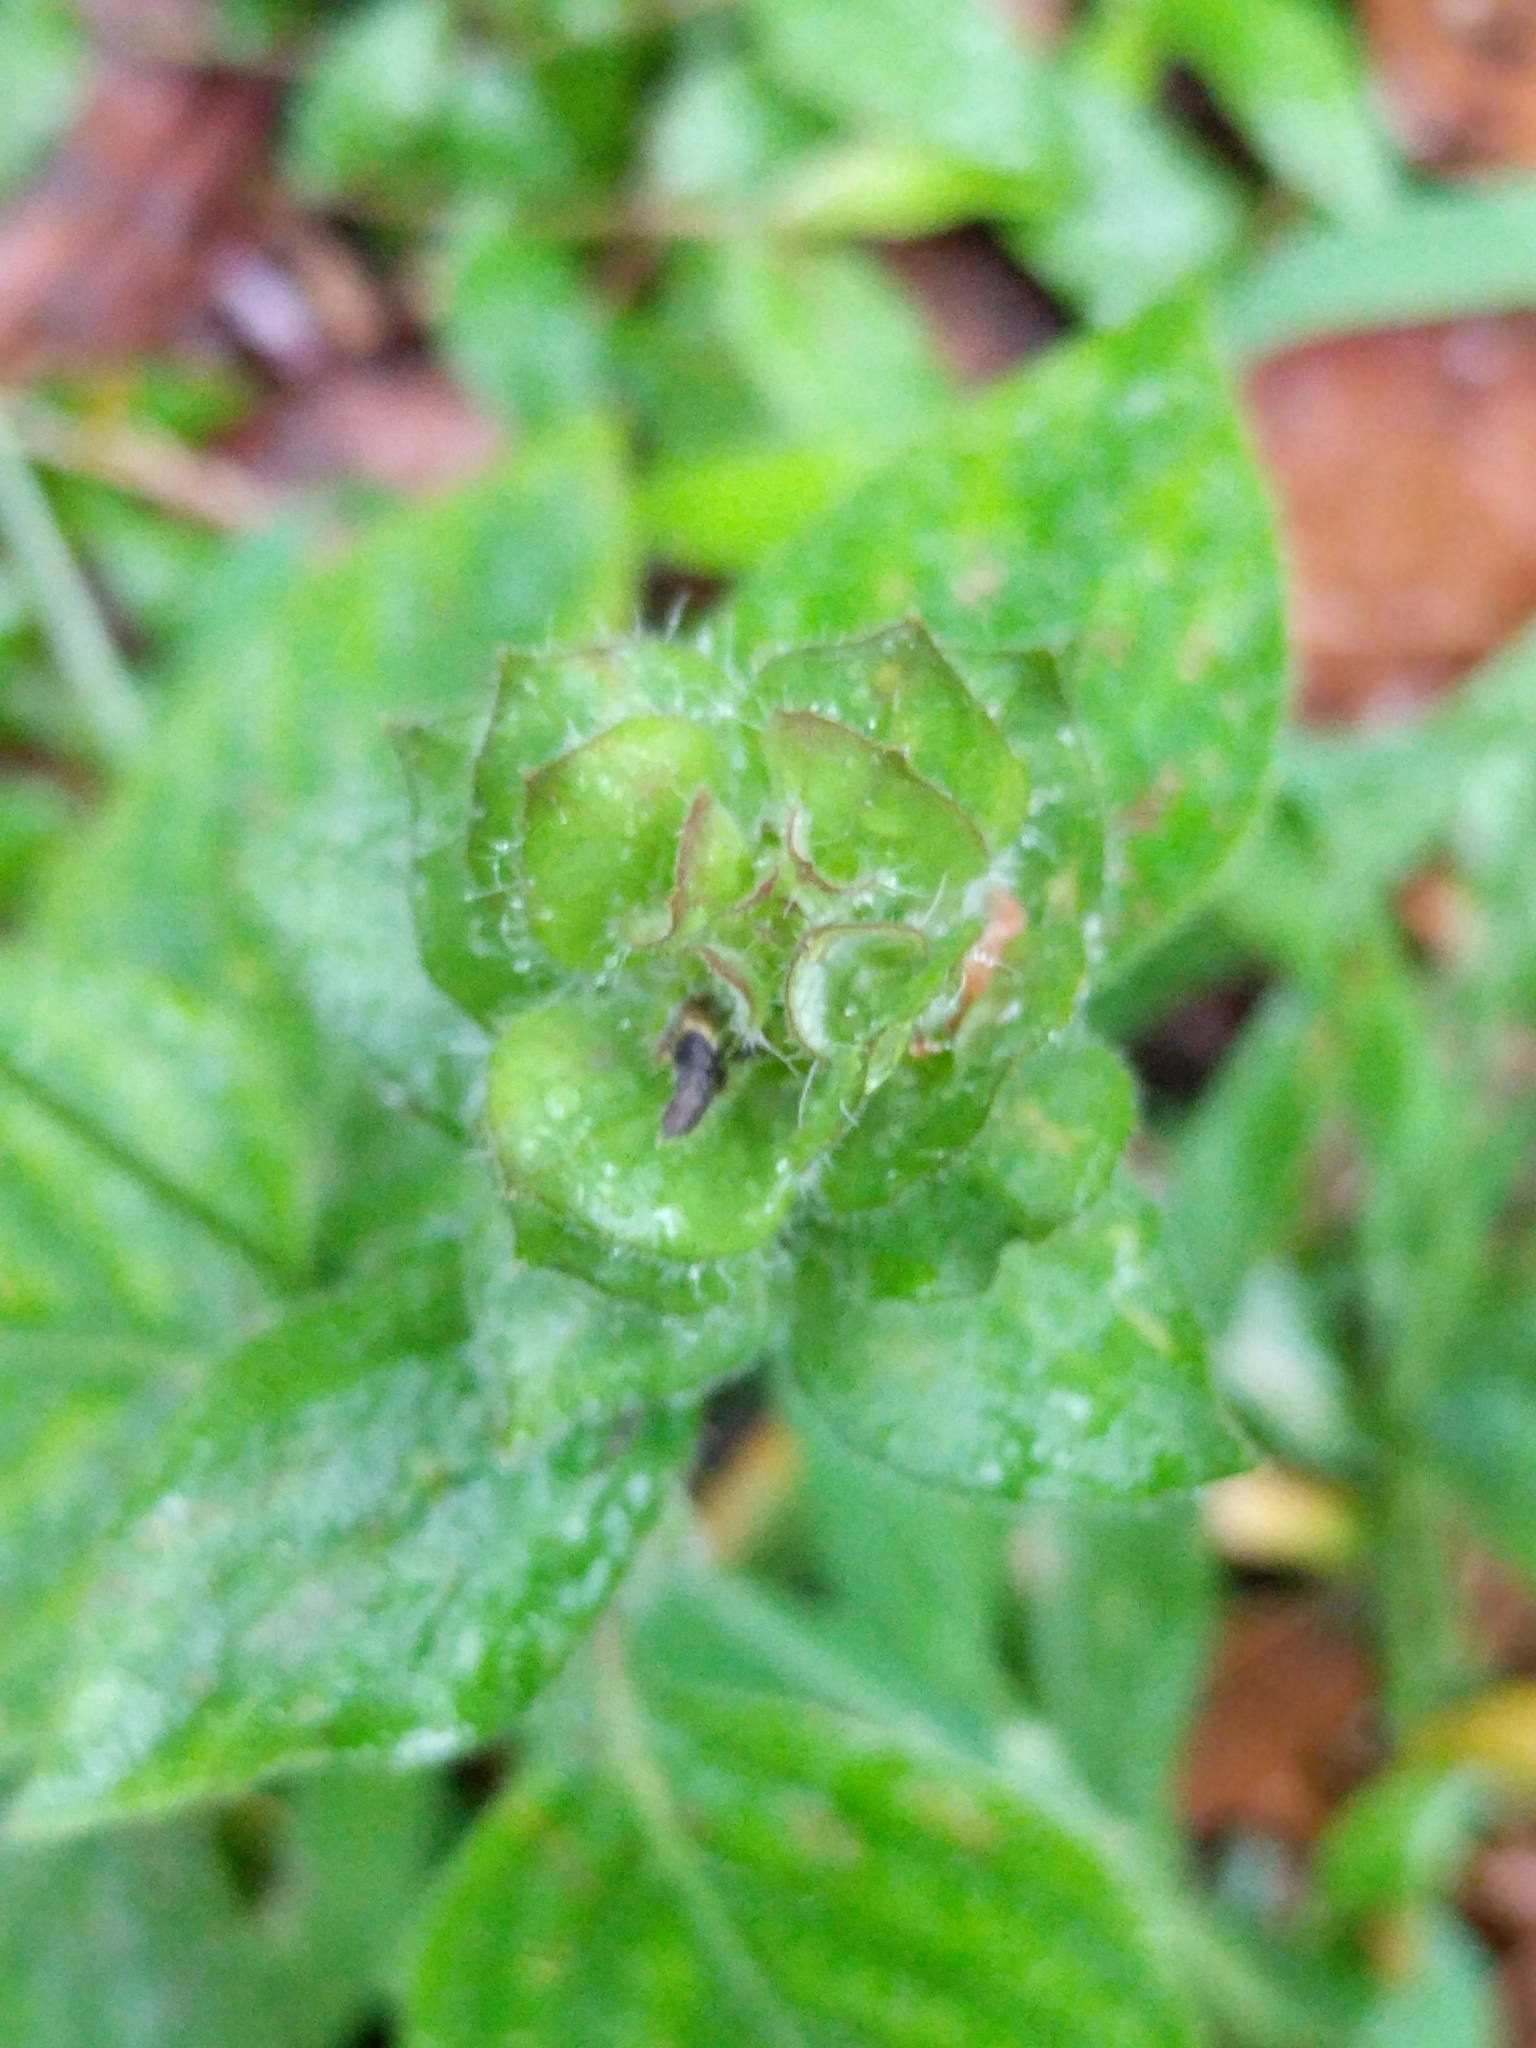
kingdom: Plantae
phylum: Tracheophyta
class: Magnoliopsida
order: Lamiales
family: Acanthaceae
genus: Ruellia
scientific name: Ruellia blechum
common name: Browne's blechum
